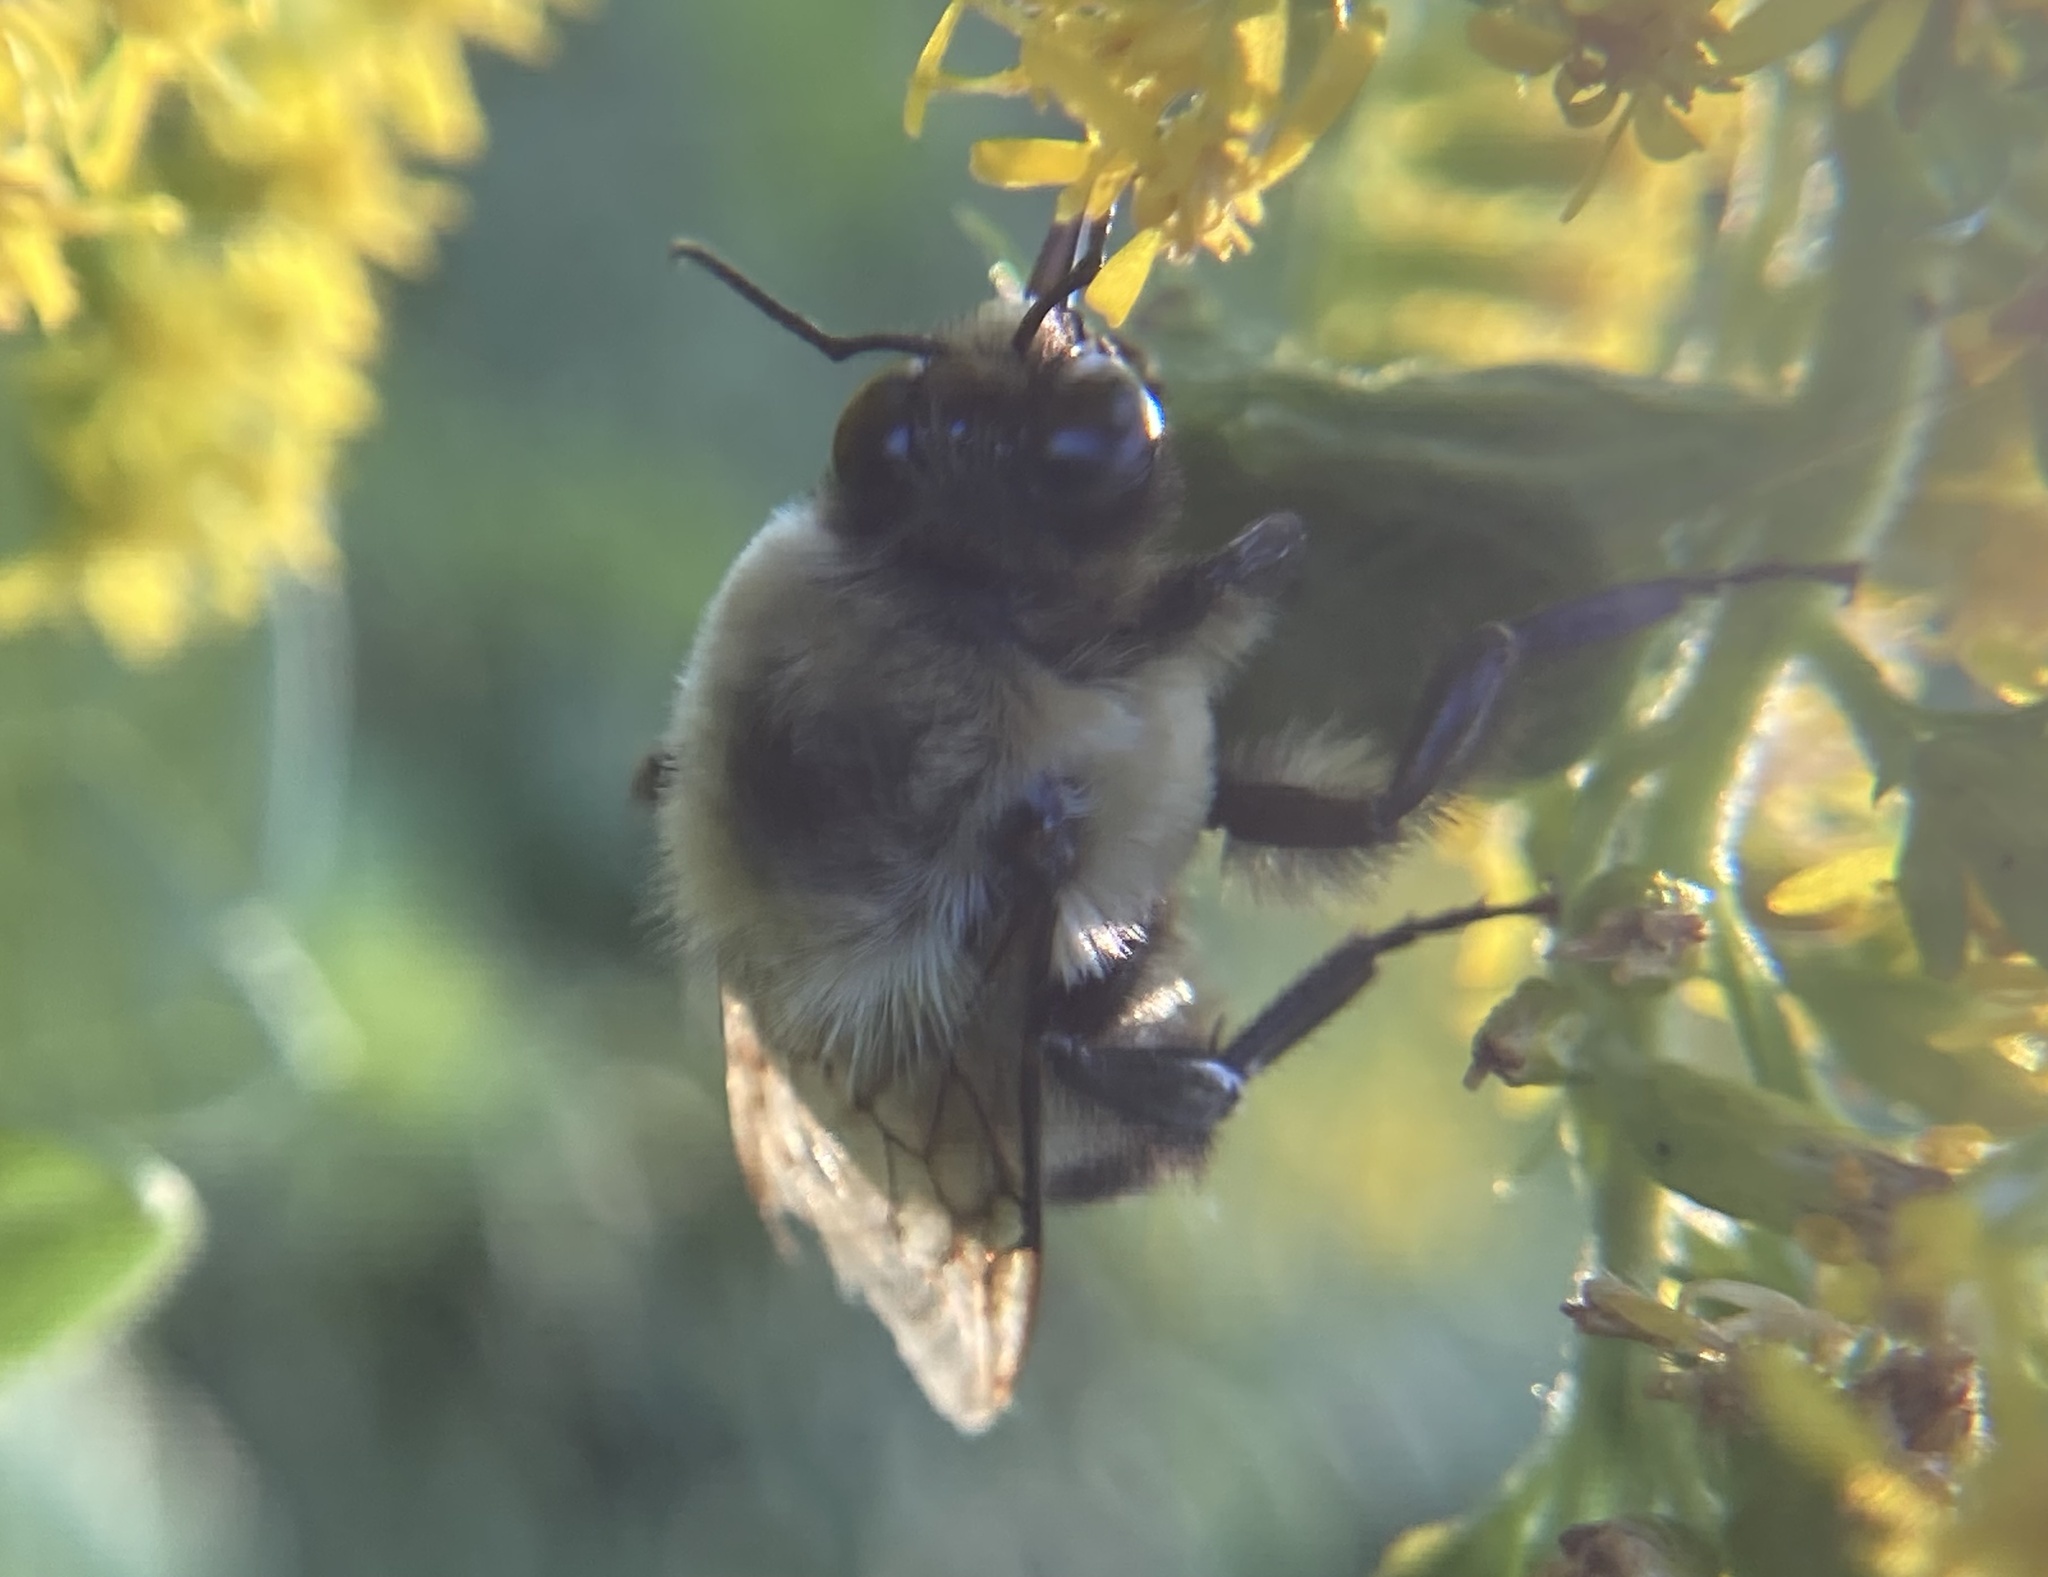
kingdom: Animalia
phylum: Arthropoda
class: Insecta
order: Hymenoptera
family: Apidae
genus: Bombus
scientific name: Bombus griseocollis
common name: Brown-belted bumble bee
